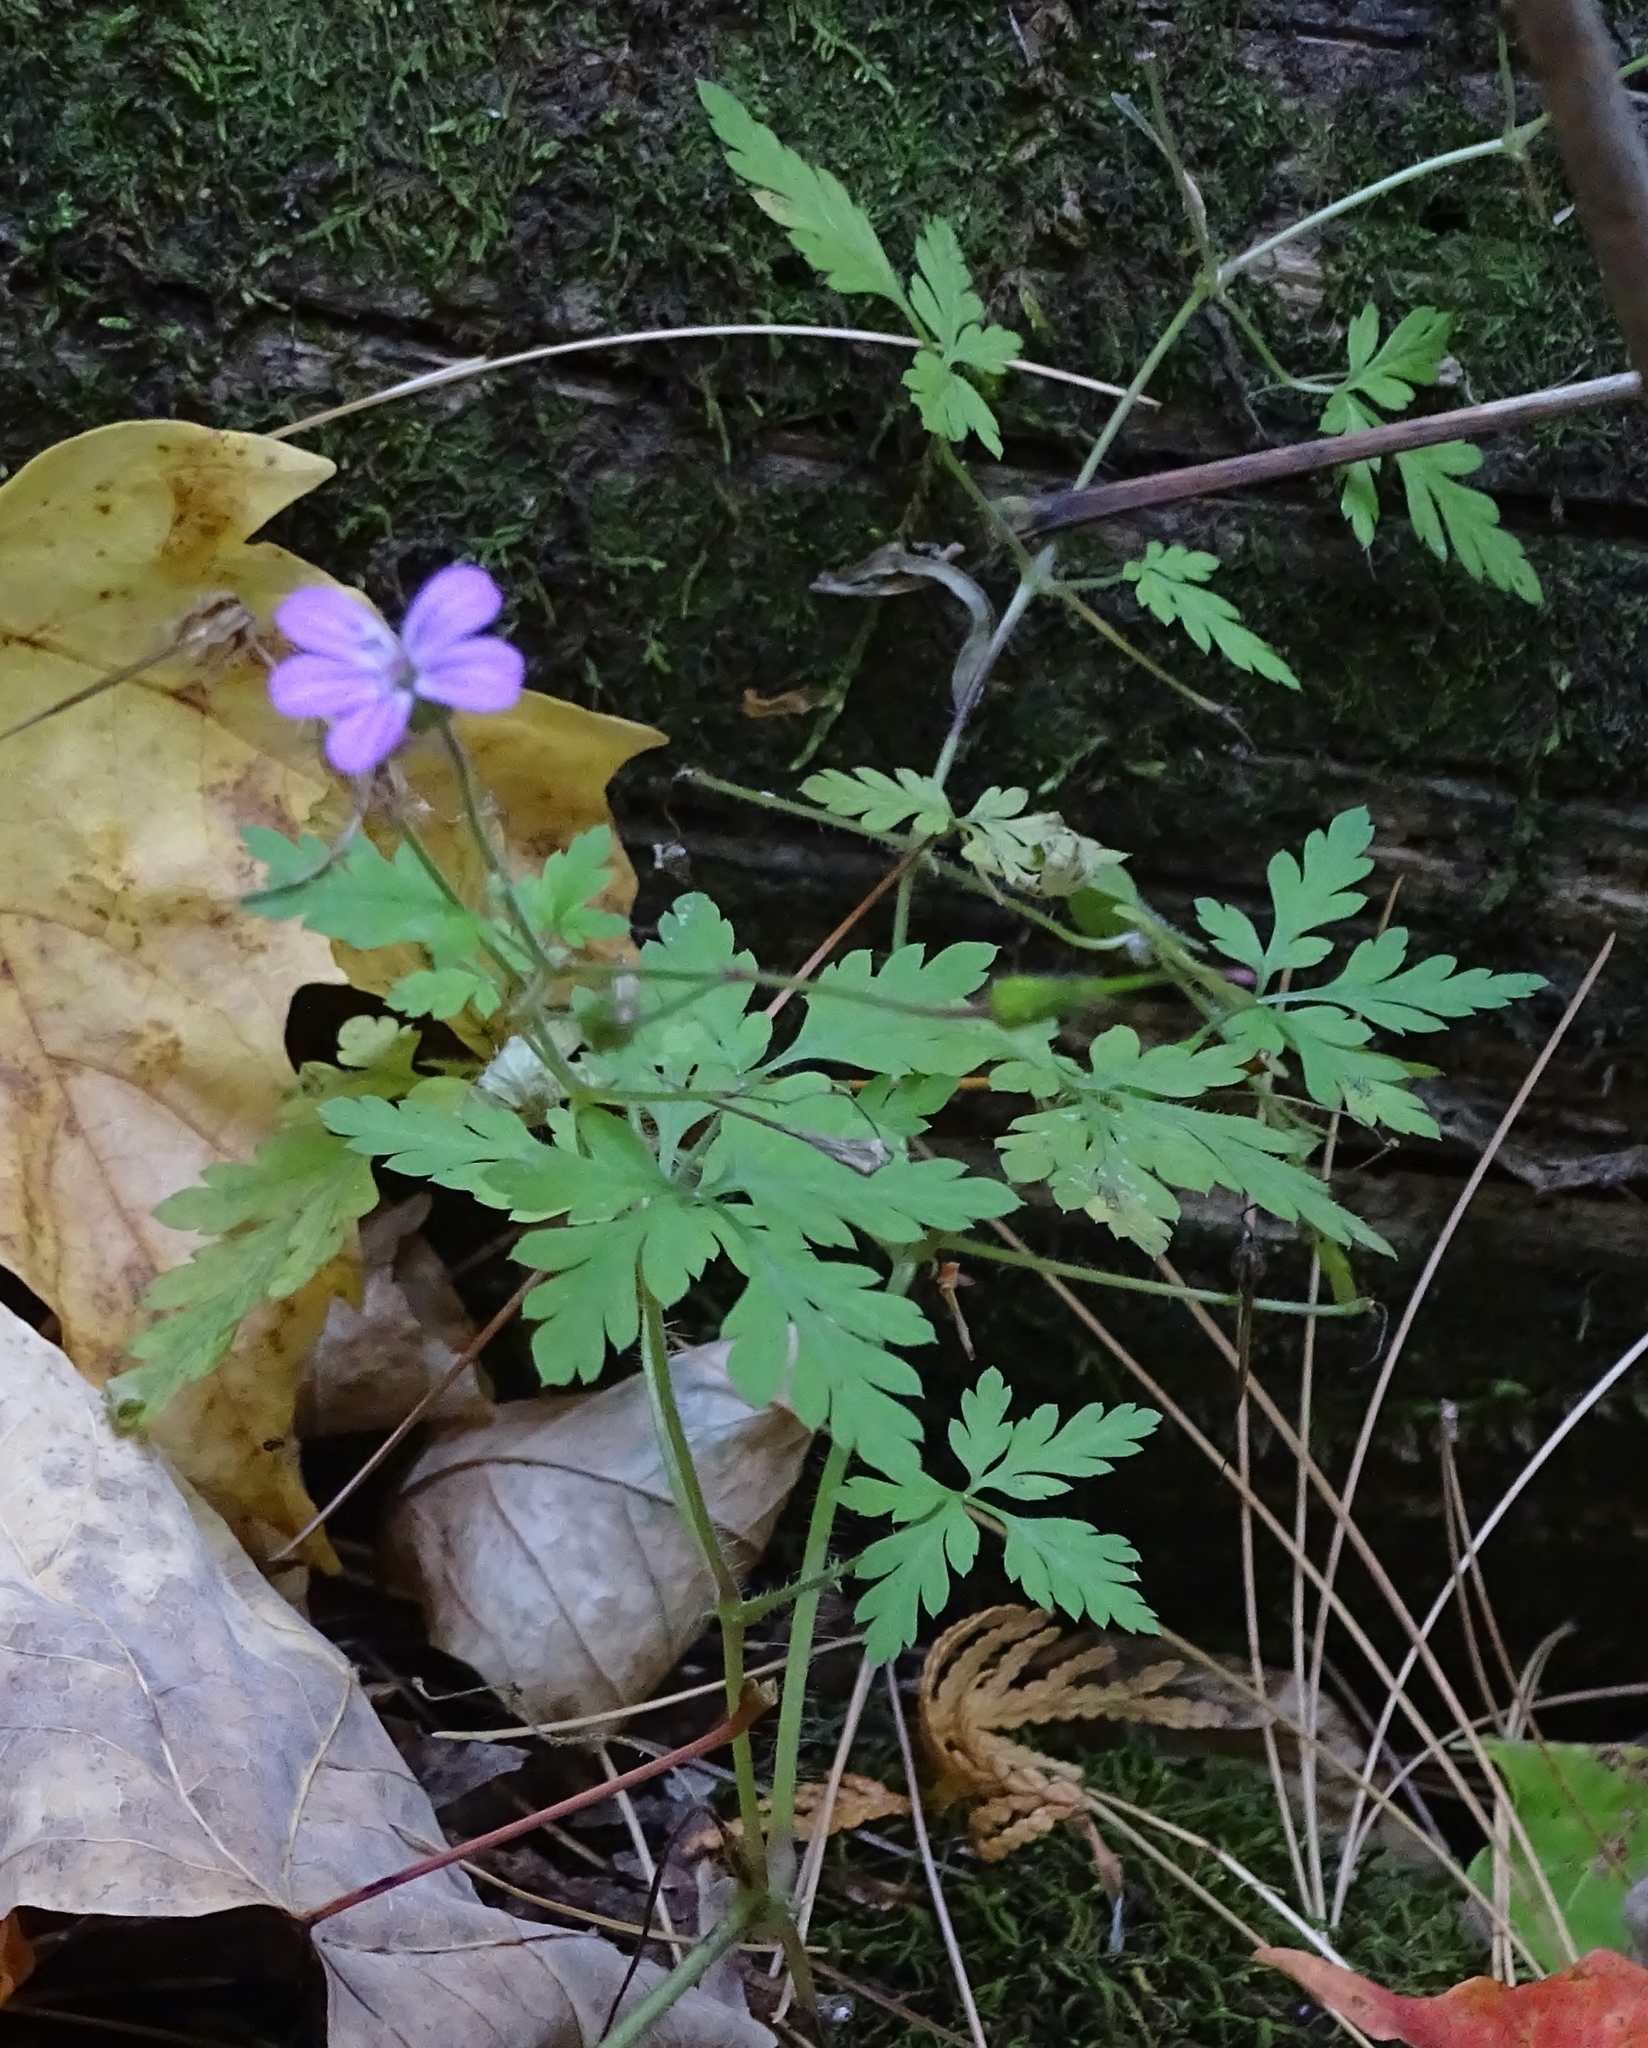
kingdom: Plantae
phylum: Tracheophyta
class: Magnoliopsida
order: Geraniales
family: Geraniaceae
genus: Geranium
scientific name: Geranium robertianum
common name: Herb-robert
